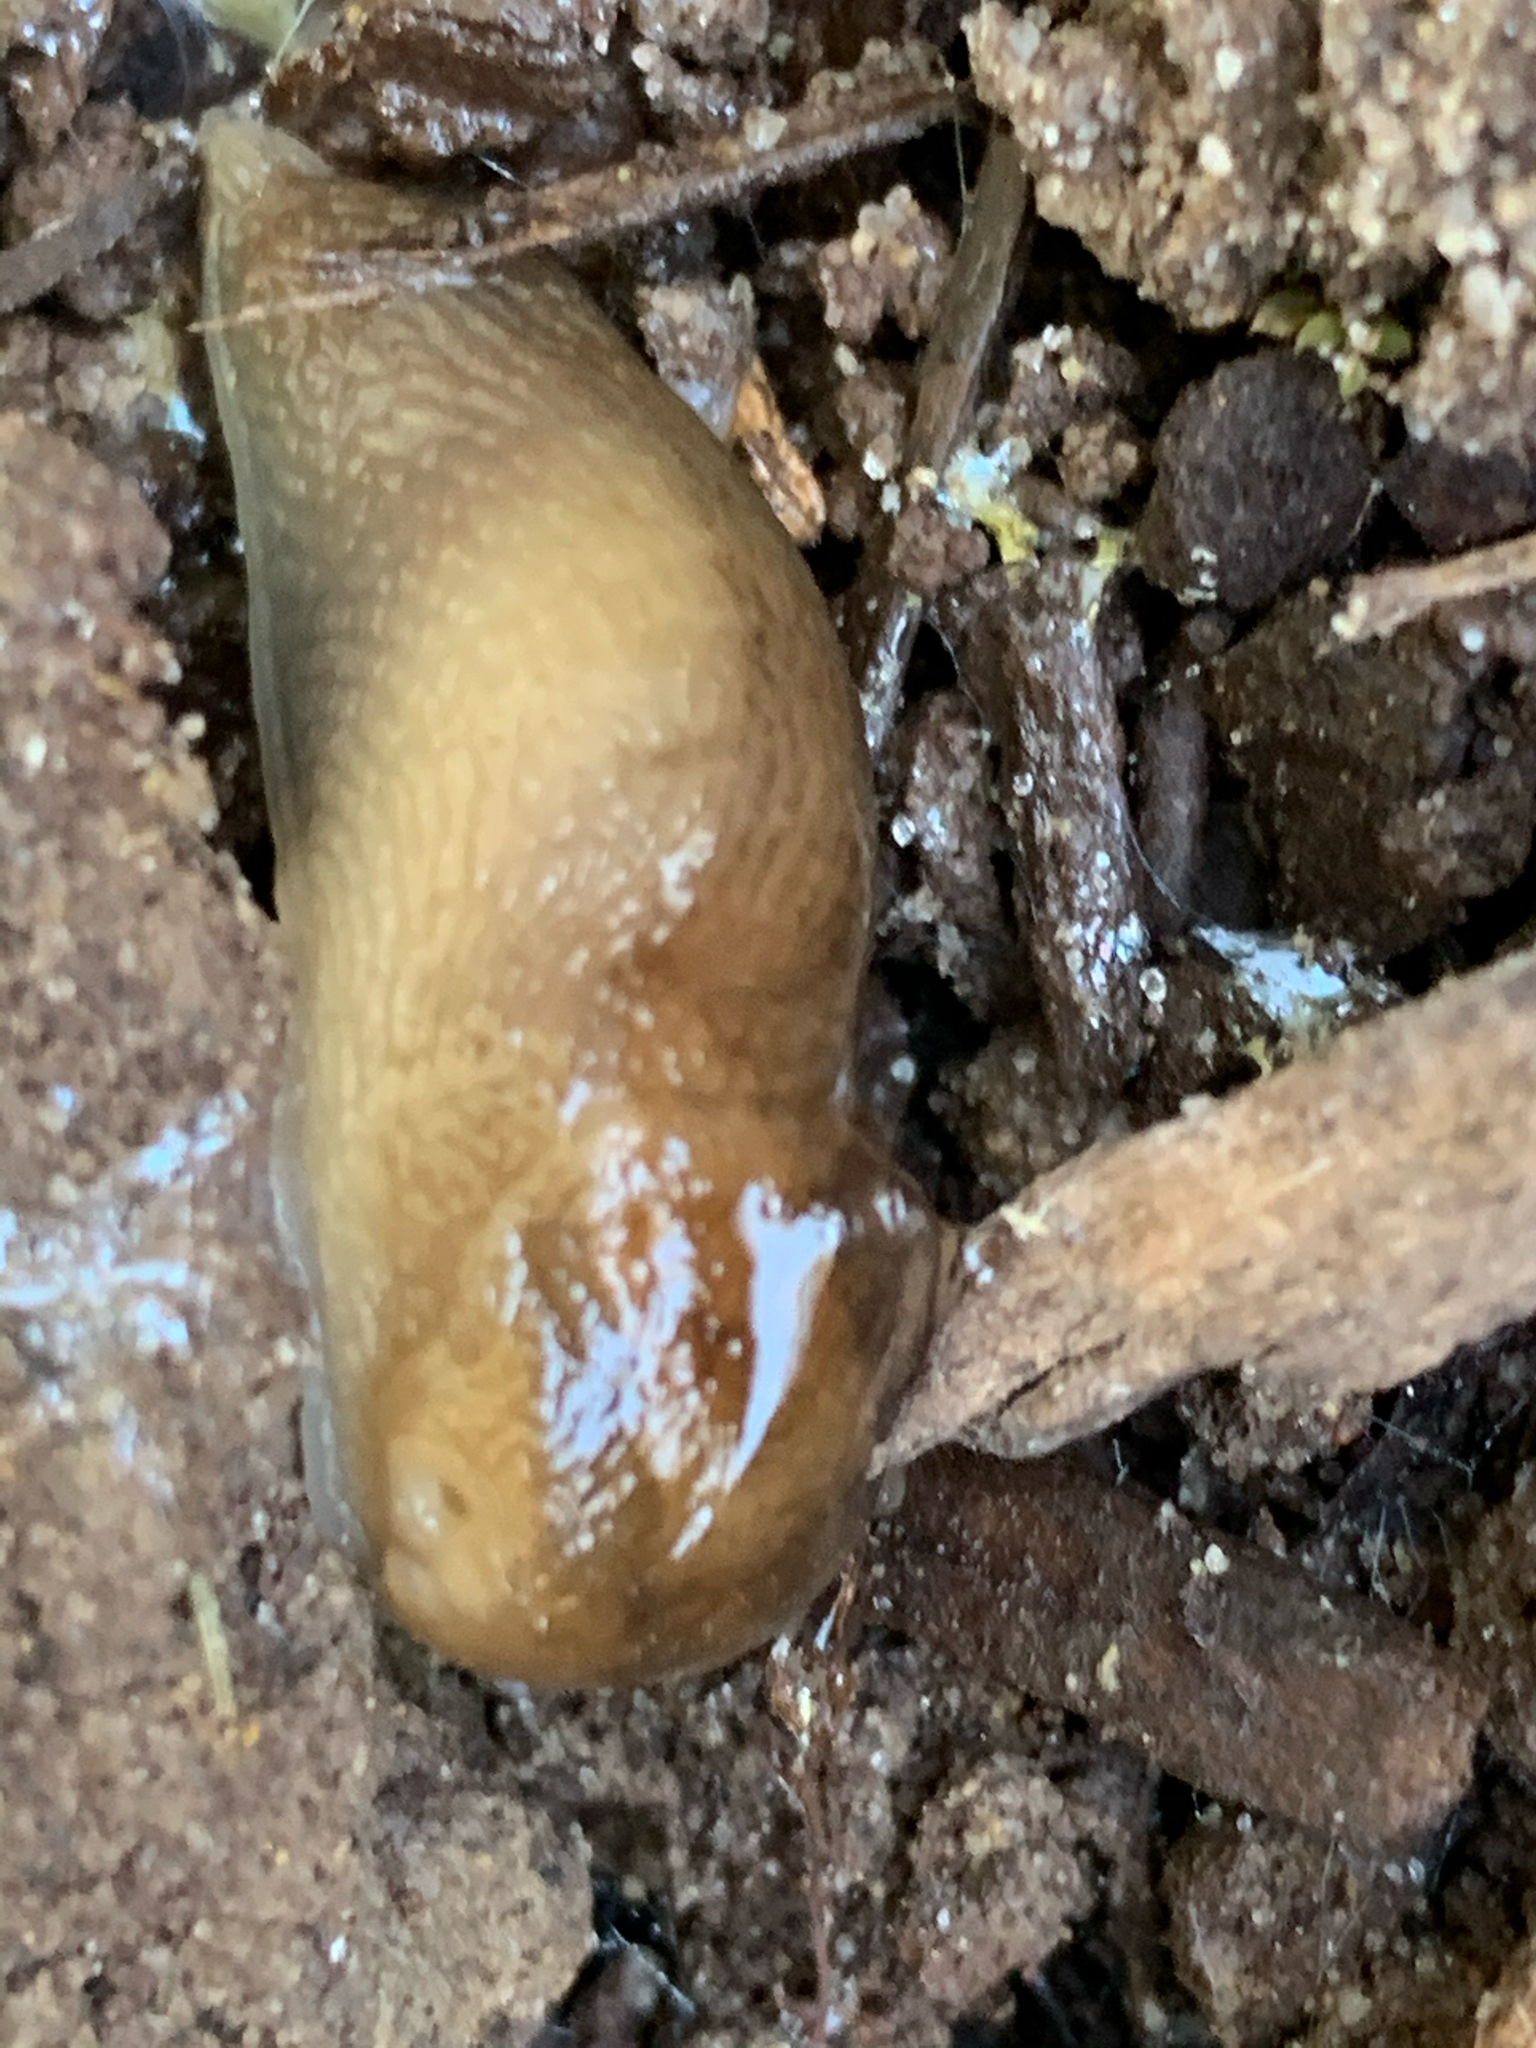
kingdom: Animalia
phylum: Mollusca
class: Gastropoda
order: Stylommatophora
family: Limacidae
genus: Ambigolimax
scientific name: Ambigolimax
